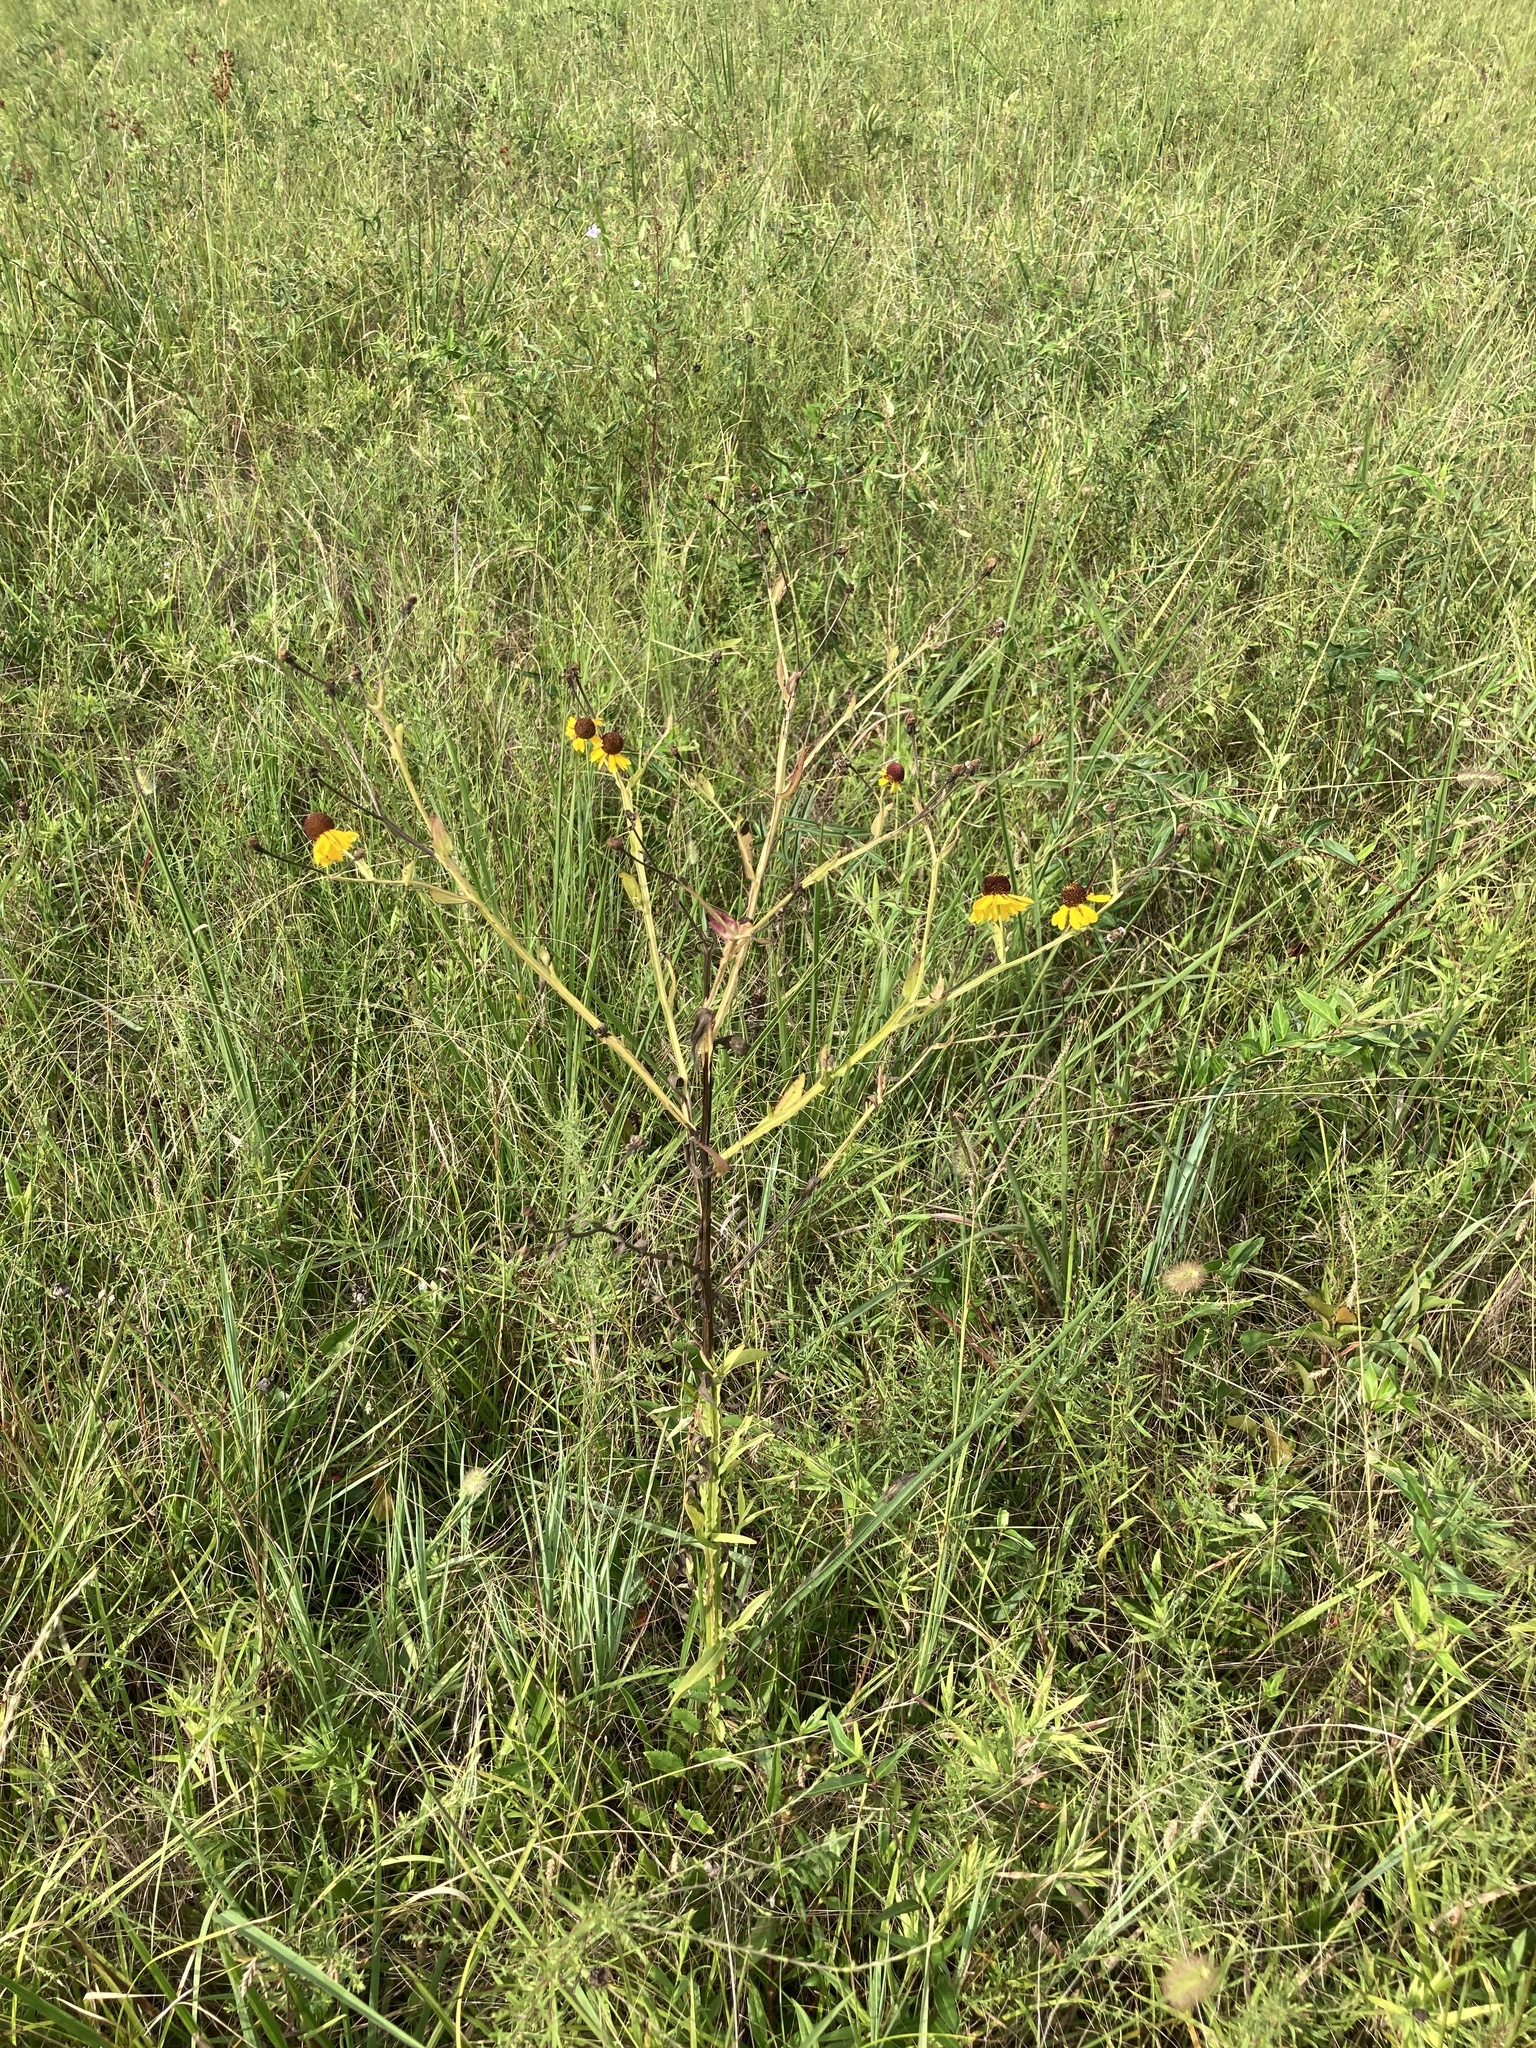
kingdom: Plantae
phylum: Tracheophyta
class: Magnoliopsida
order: Asterales
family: Asteraceae
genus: Helenium
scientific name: Helenium flexuosum
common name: Naked-flowered sneezeweed
